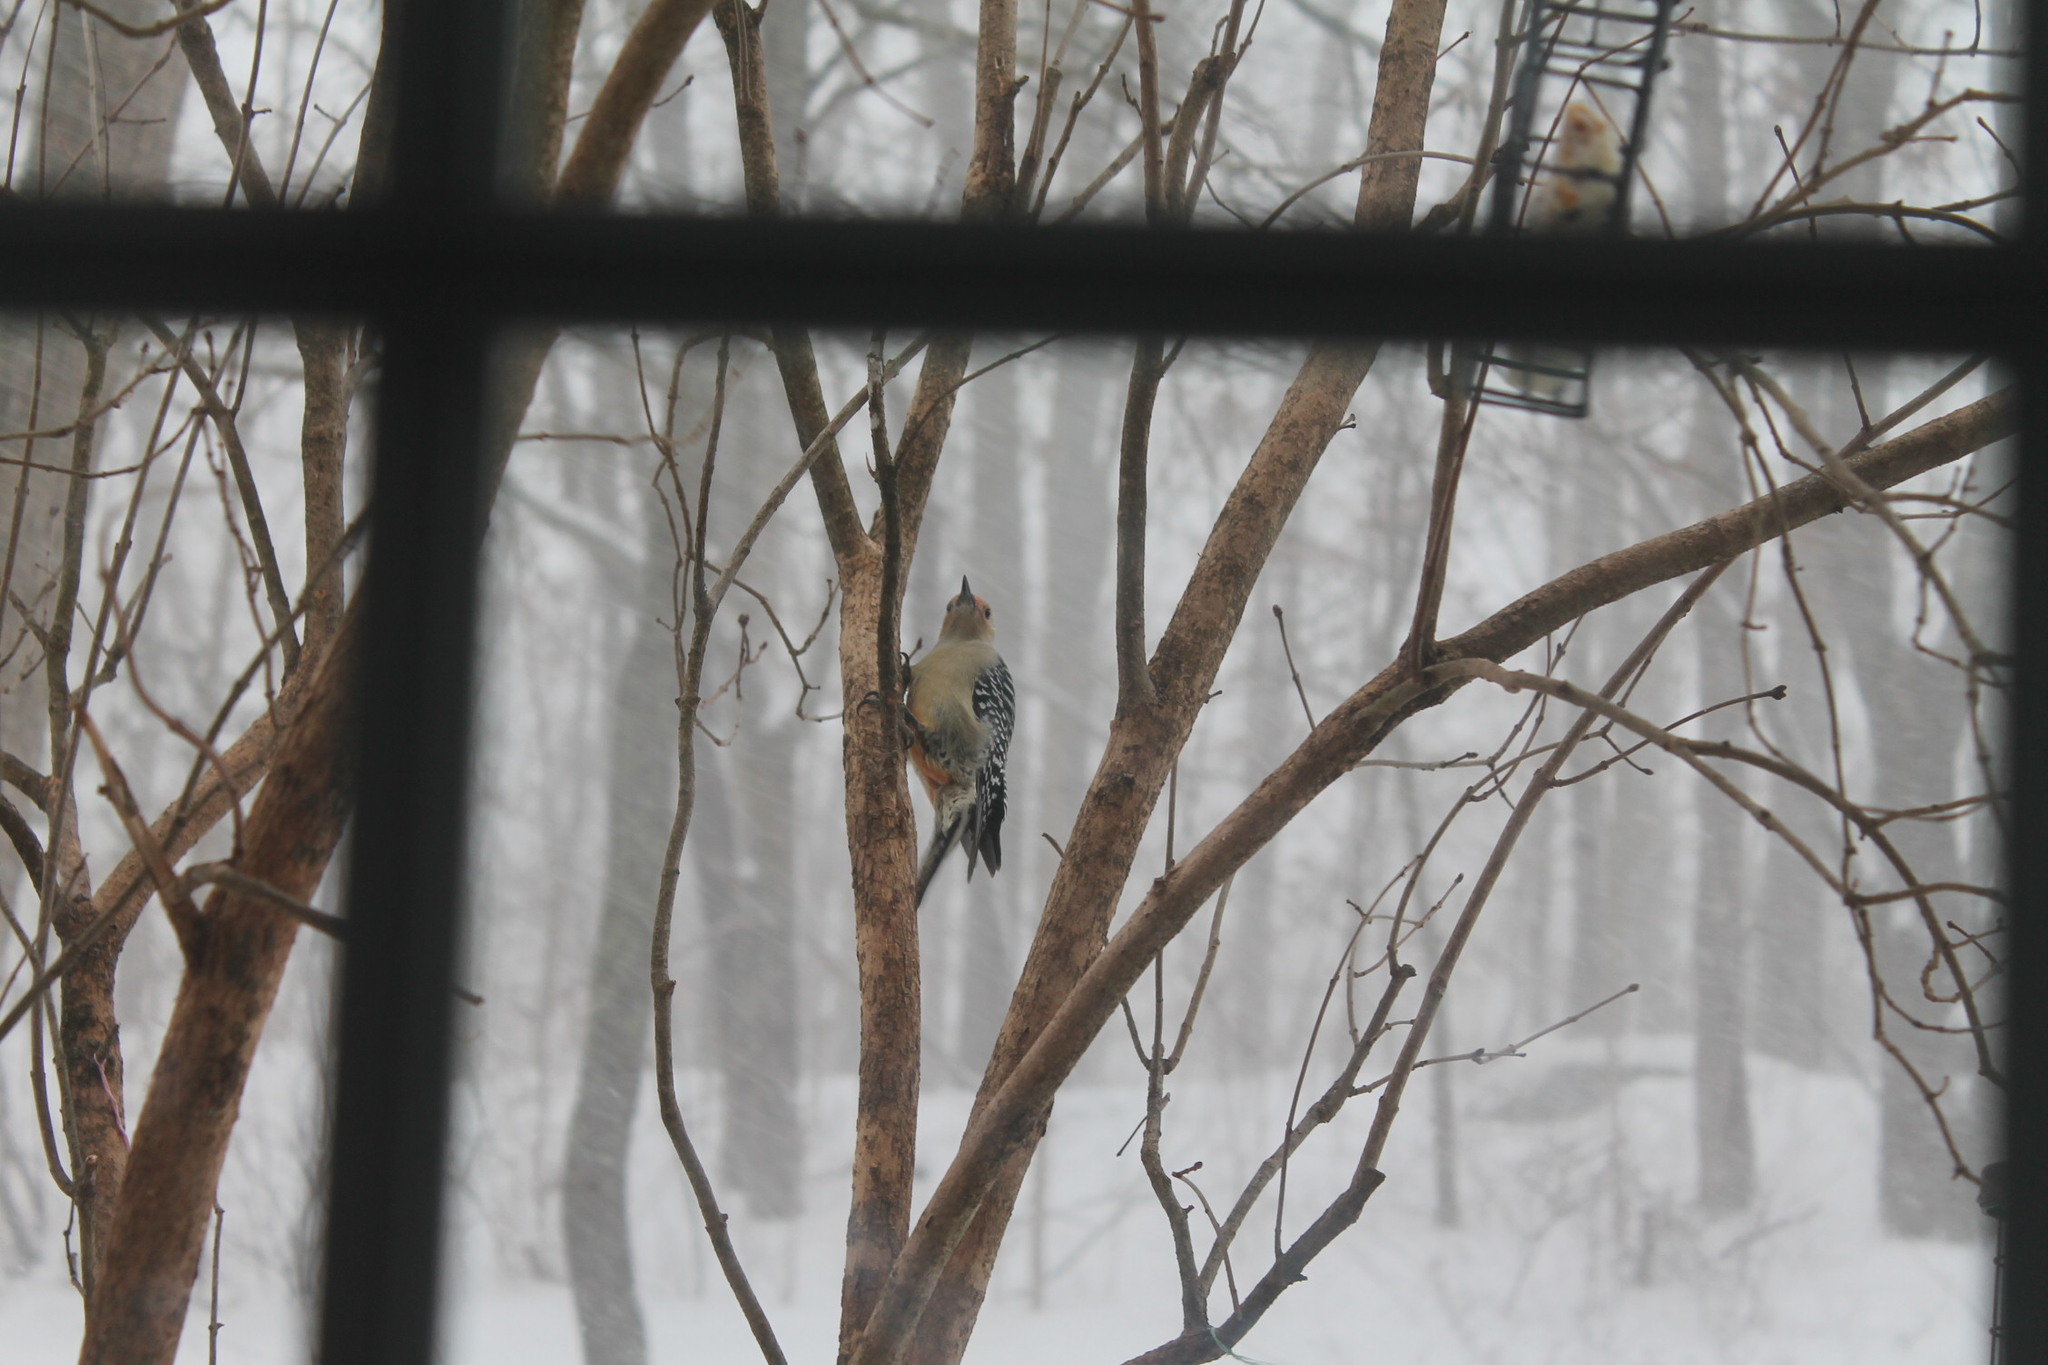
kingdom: Animalia
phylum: Chordata
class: Aves
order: Piciformes
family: Picidae
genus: Melanerpes
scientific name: Melanerpes carolinus
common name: Red-bellied woodpecker
